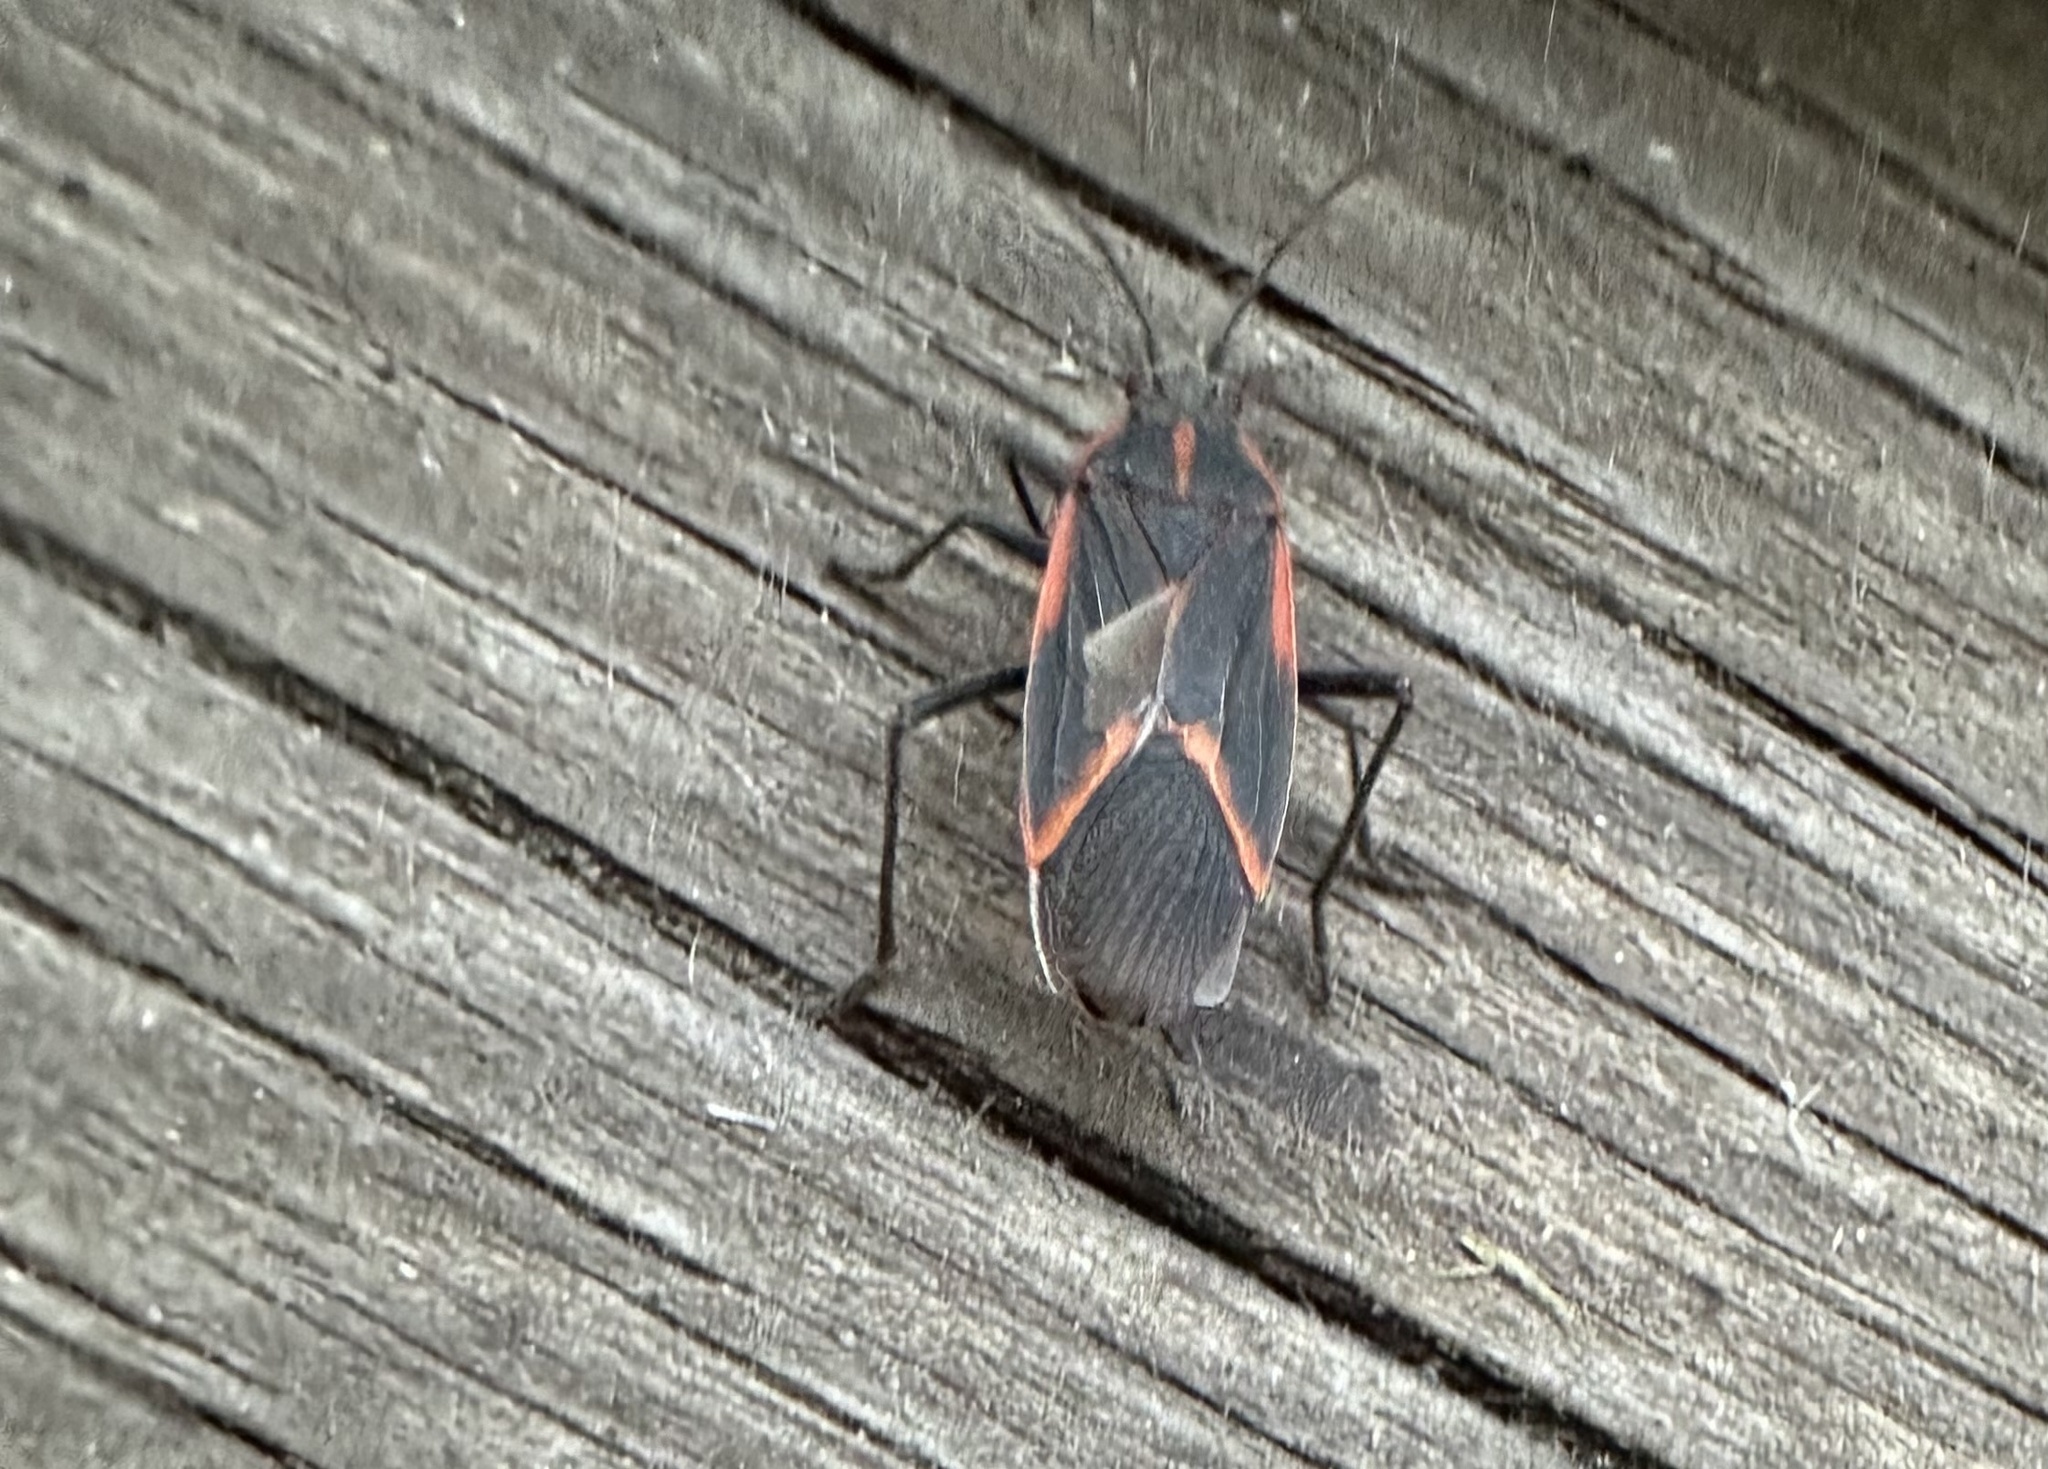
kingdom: Animalia
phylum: Arthropoda
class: Insecta
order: Hemiptera
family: Rhopalidae
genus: Boisea
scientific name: Boisea trivittata
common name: Boxelder bug
